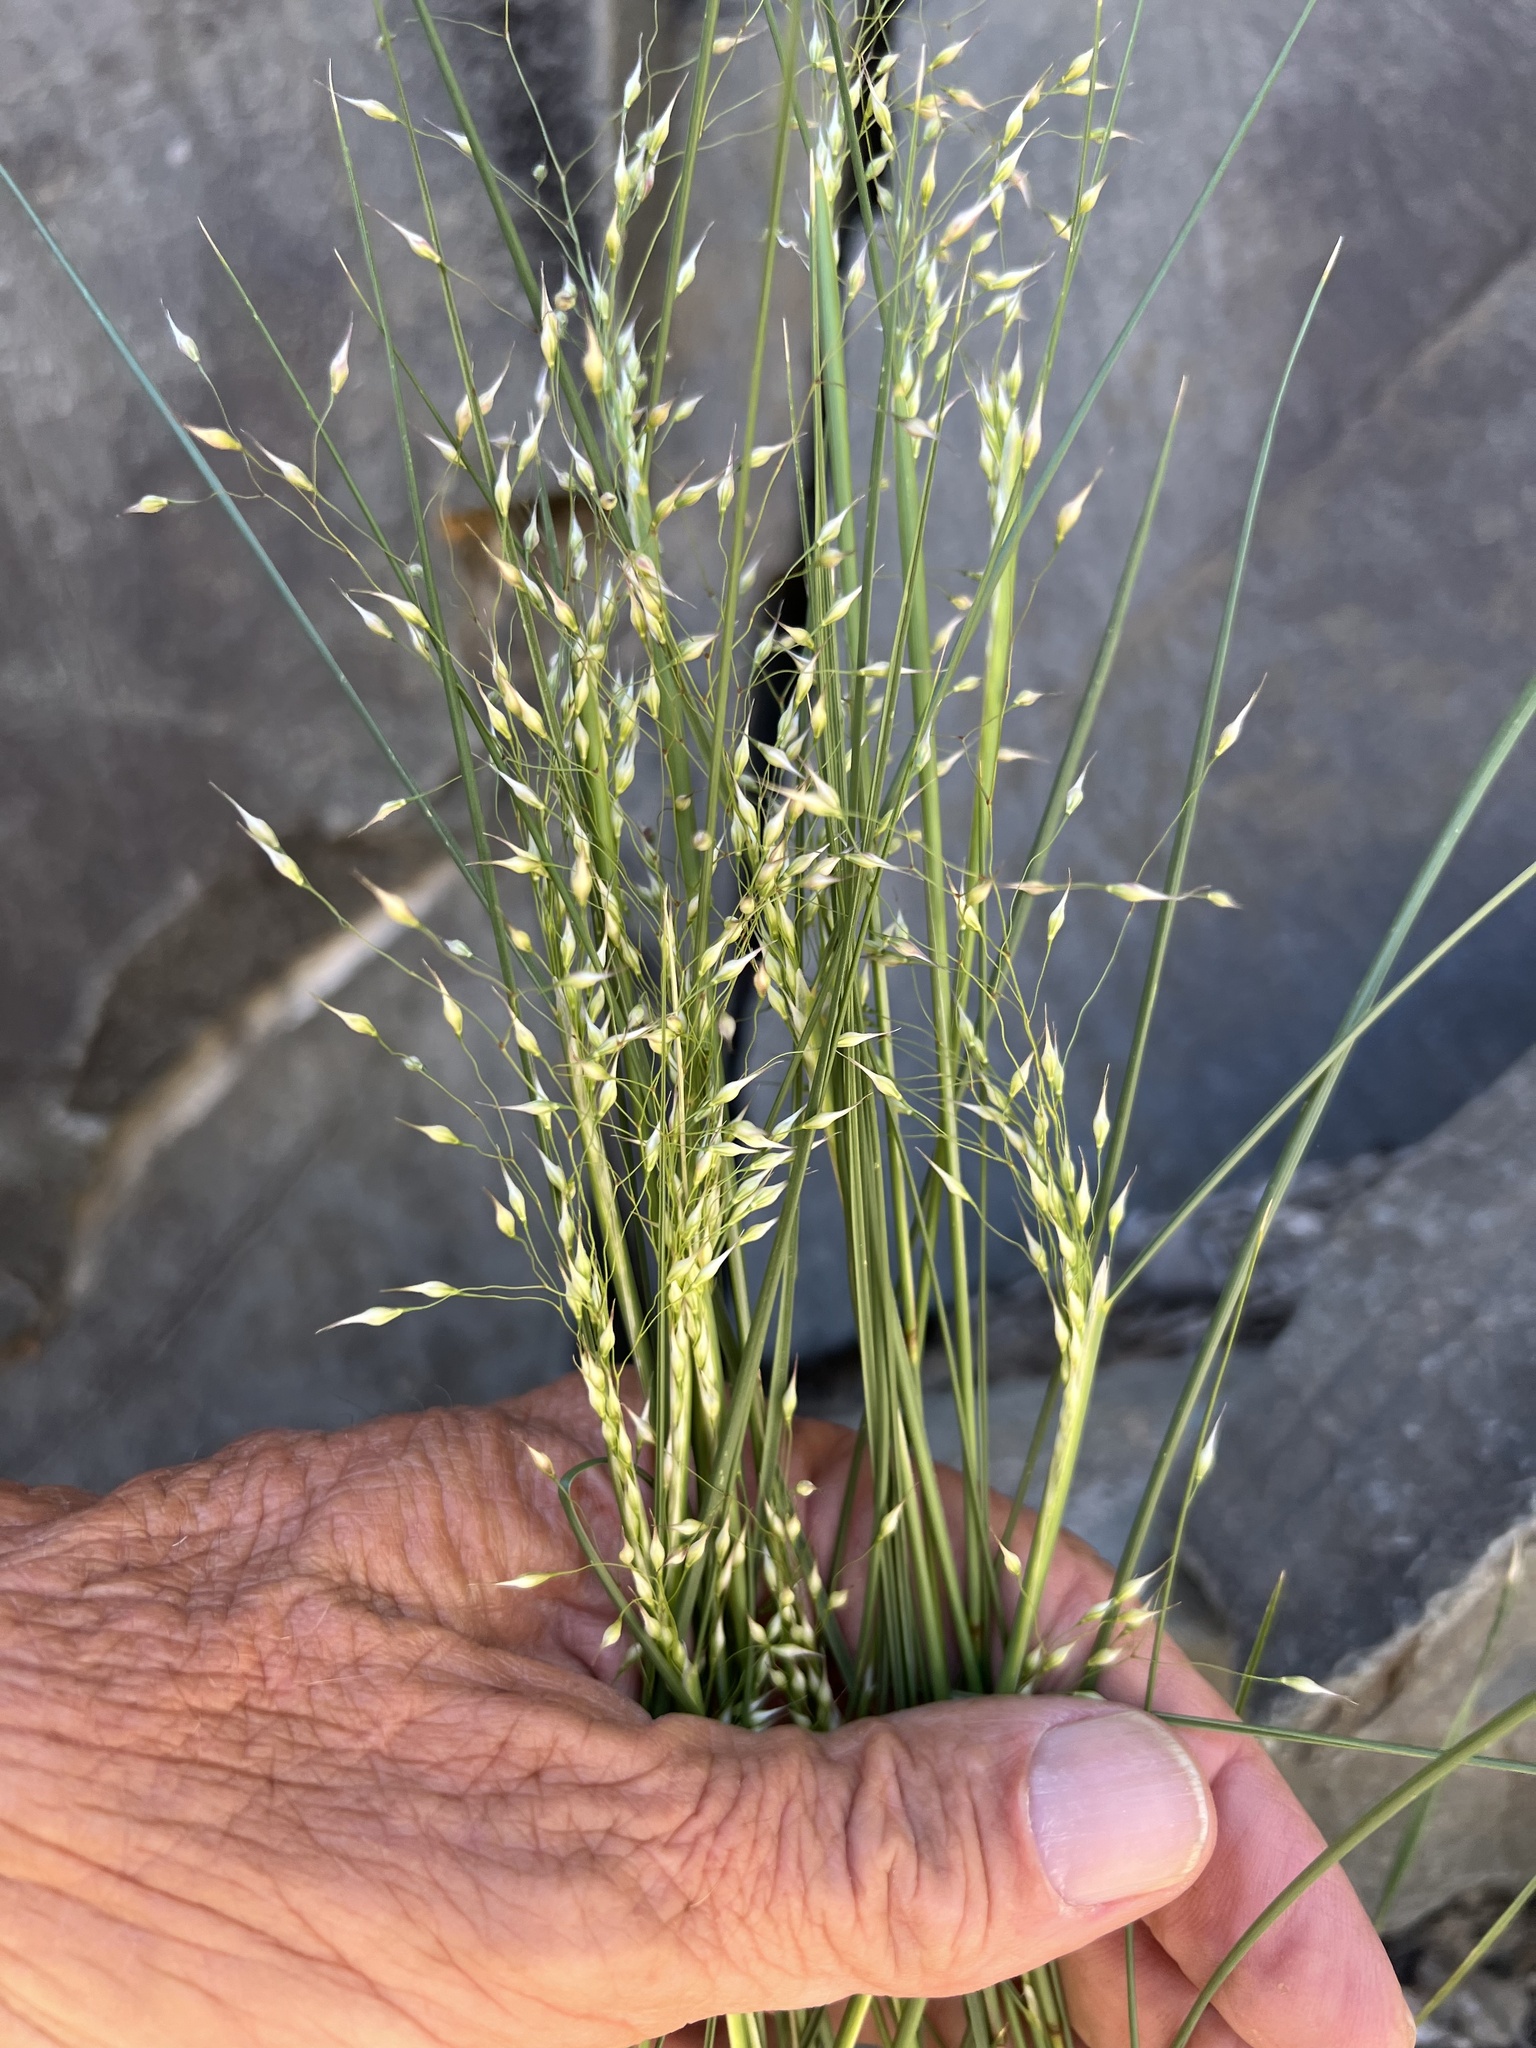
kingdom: Plantae
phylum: Tracheophyta
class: Liliopsida
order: Poales
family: Poaceae
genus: Eriocoma
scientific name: Eriocoma hymenoides
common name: Indian mountain ricegrass
